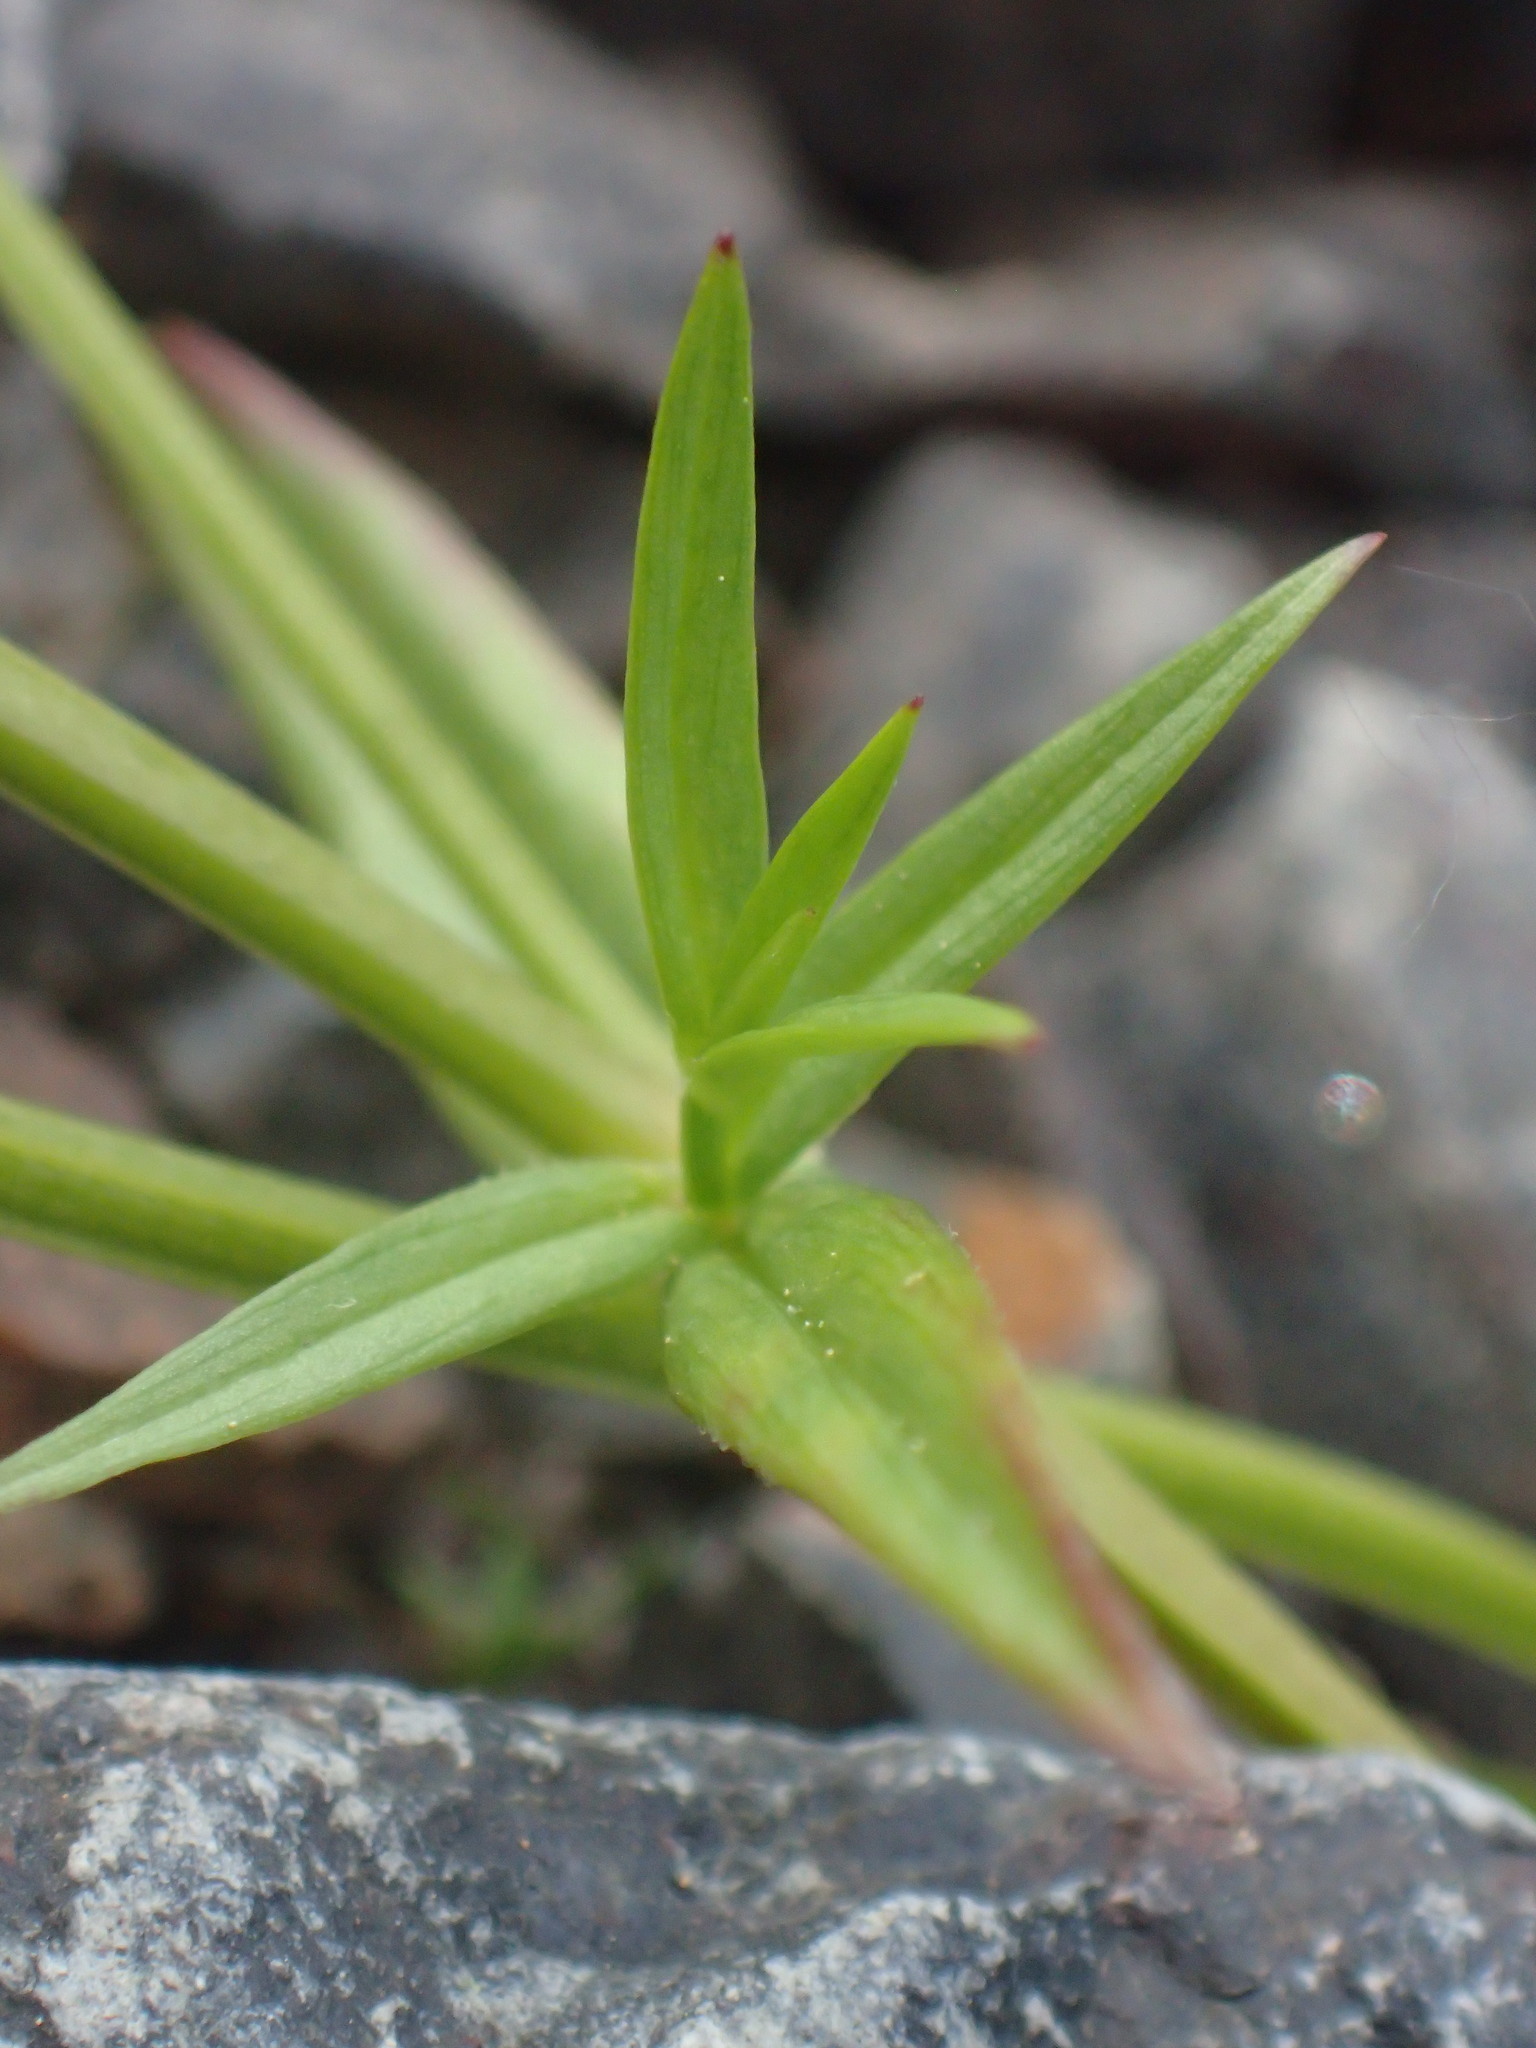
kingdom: Plantae
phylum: Tracheophyta
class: Magnoliopsida
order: Caryophyllales
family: Caryophyllaceae
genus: Stellaria
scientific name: Stellaria graminea
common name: Grass-like starwort
